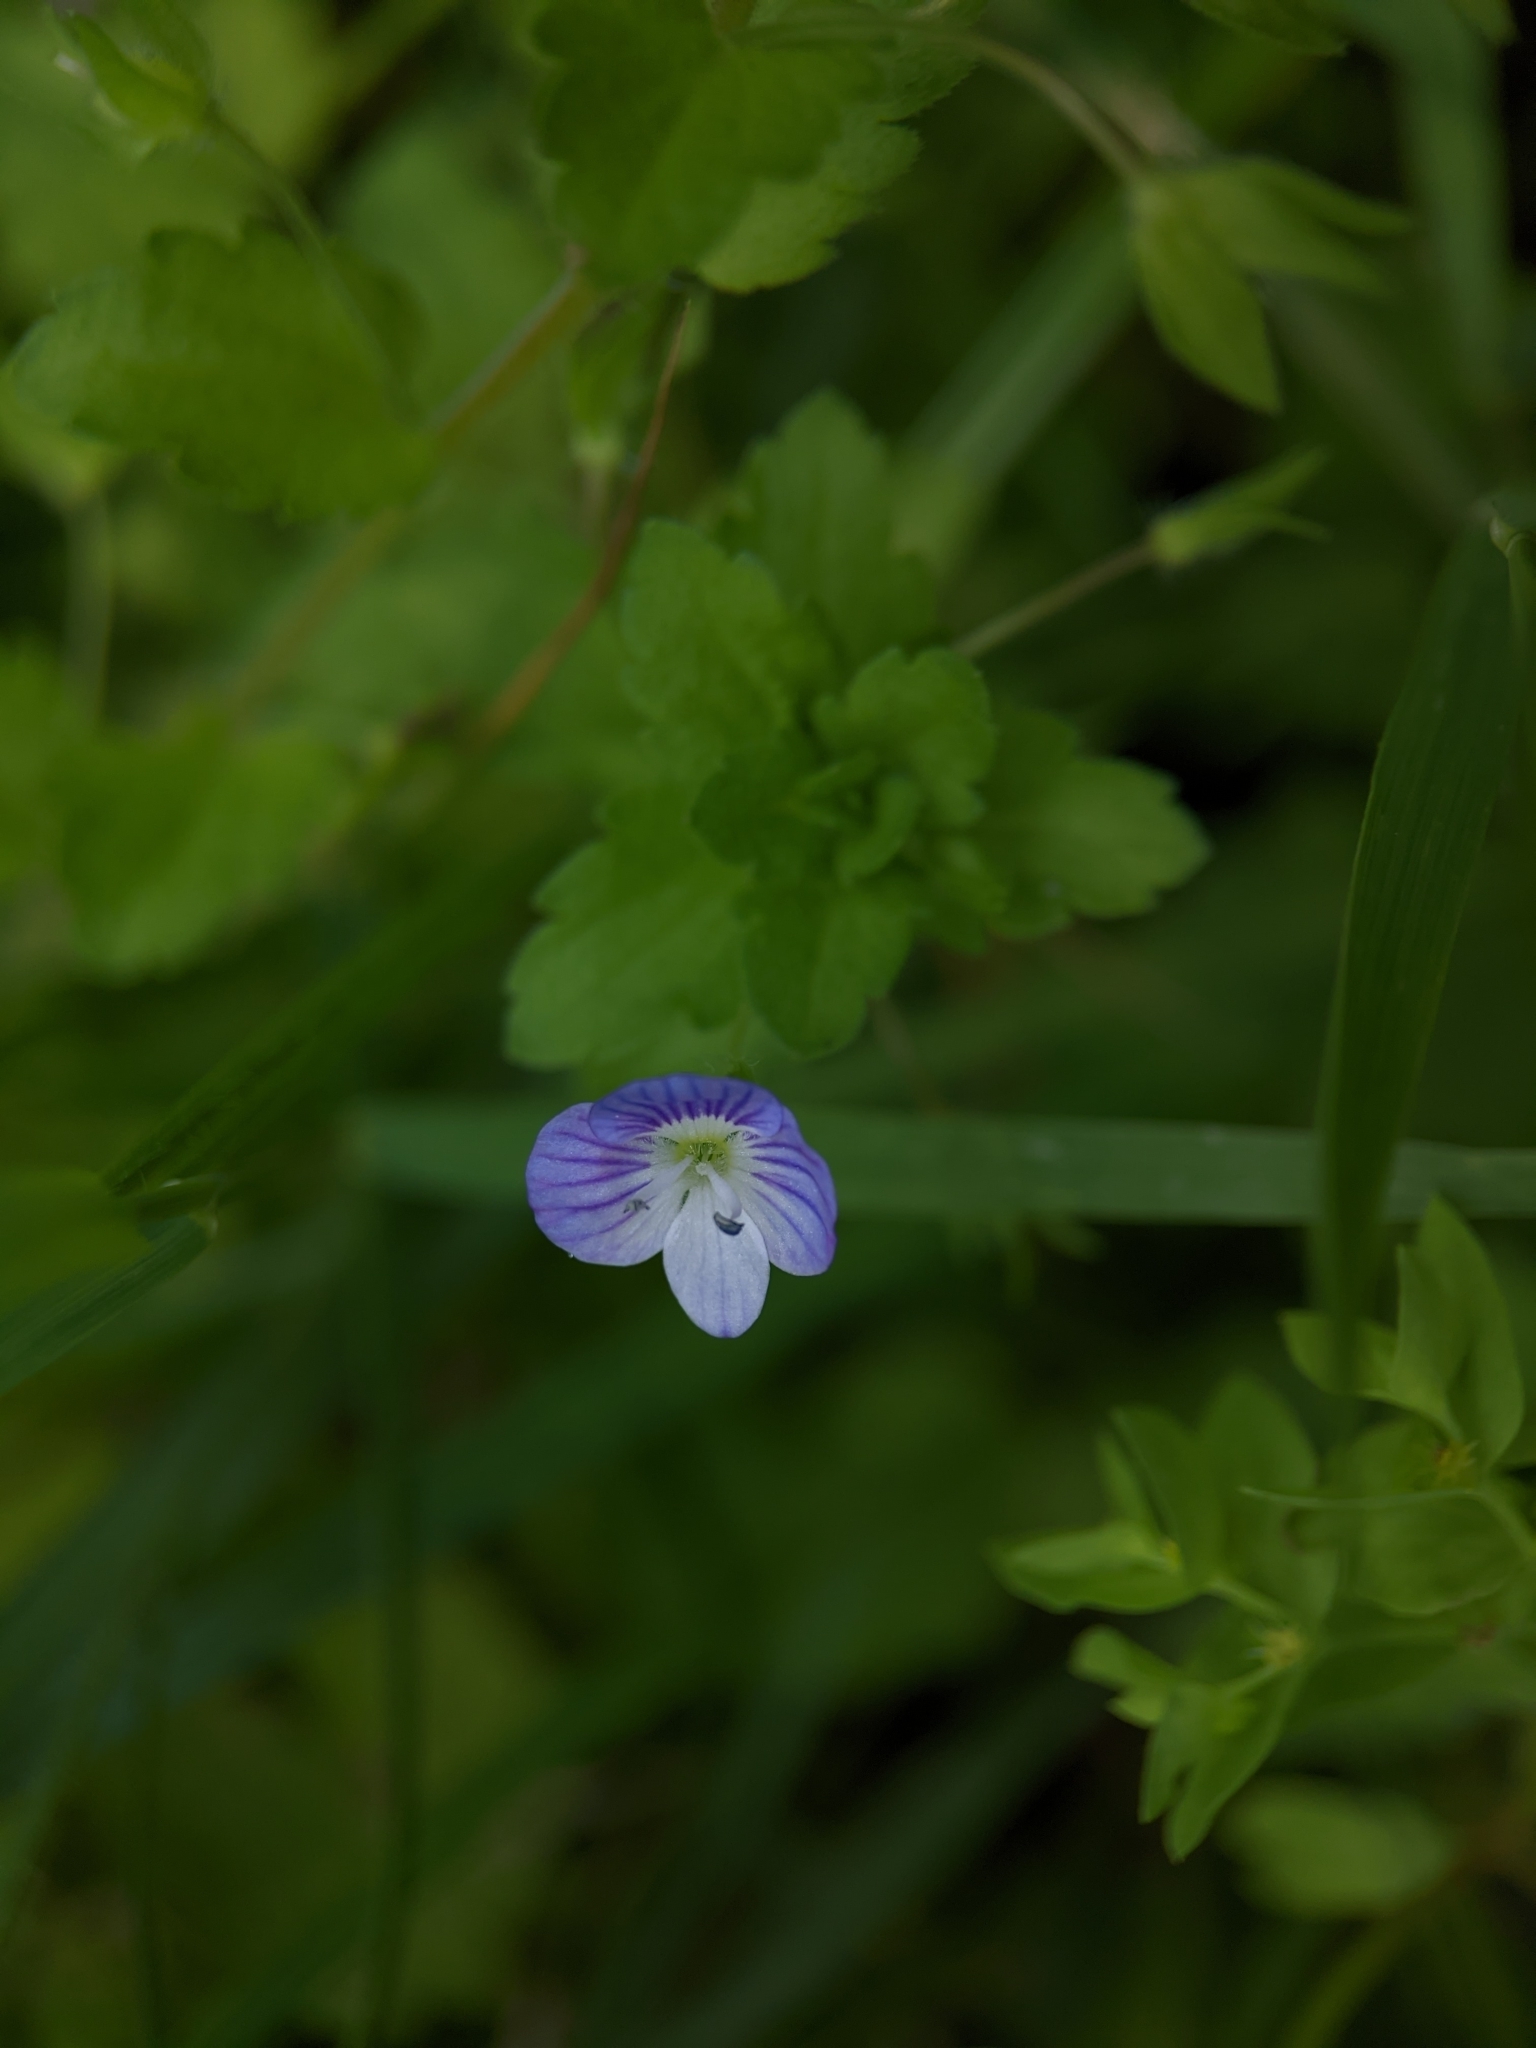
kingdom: Plantae
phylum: Tracheophyta
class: Magnoliopsida
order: Lamiales
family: Plantaginaceae
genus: Veronica
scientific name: Veronica persica
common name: Common field-speedwell
